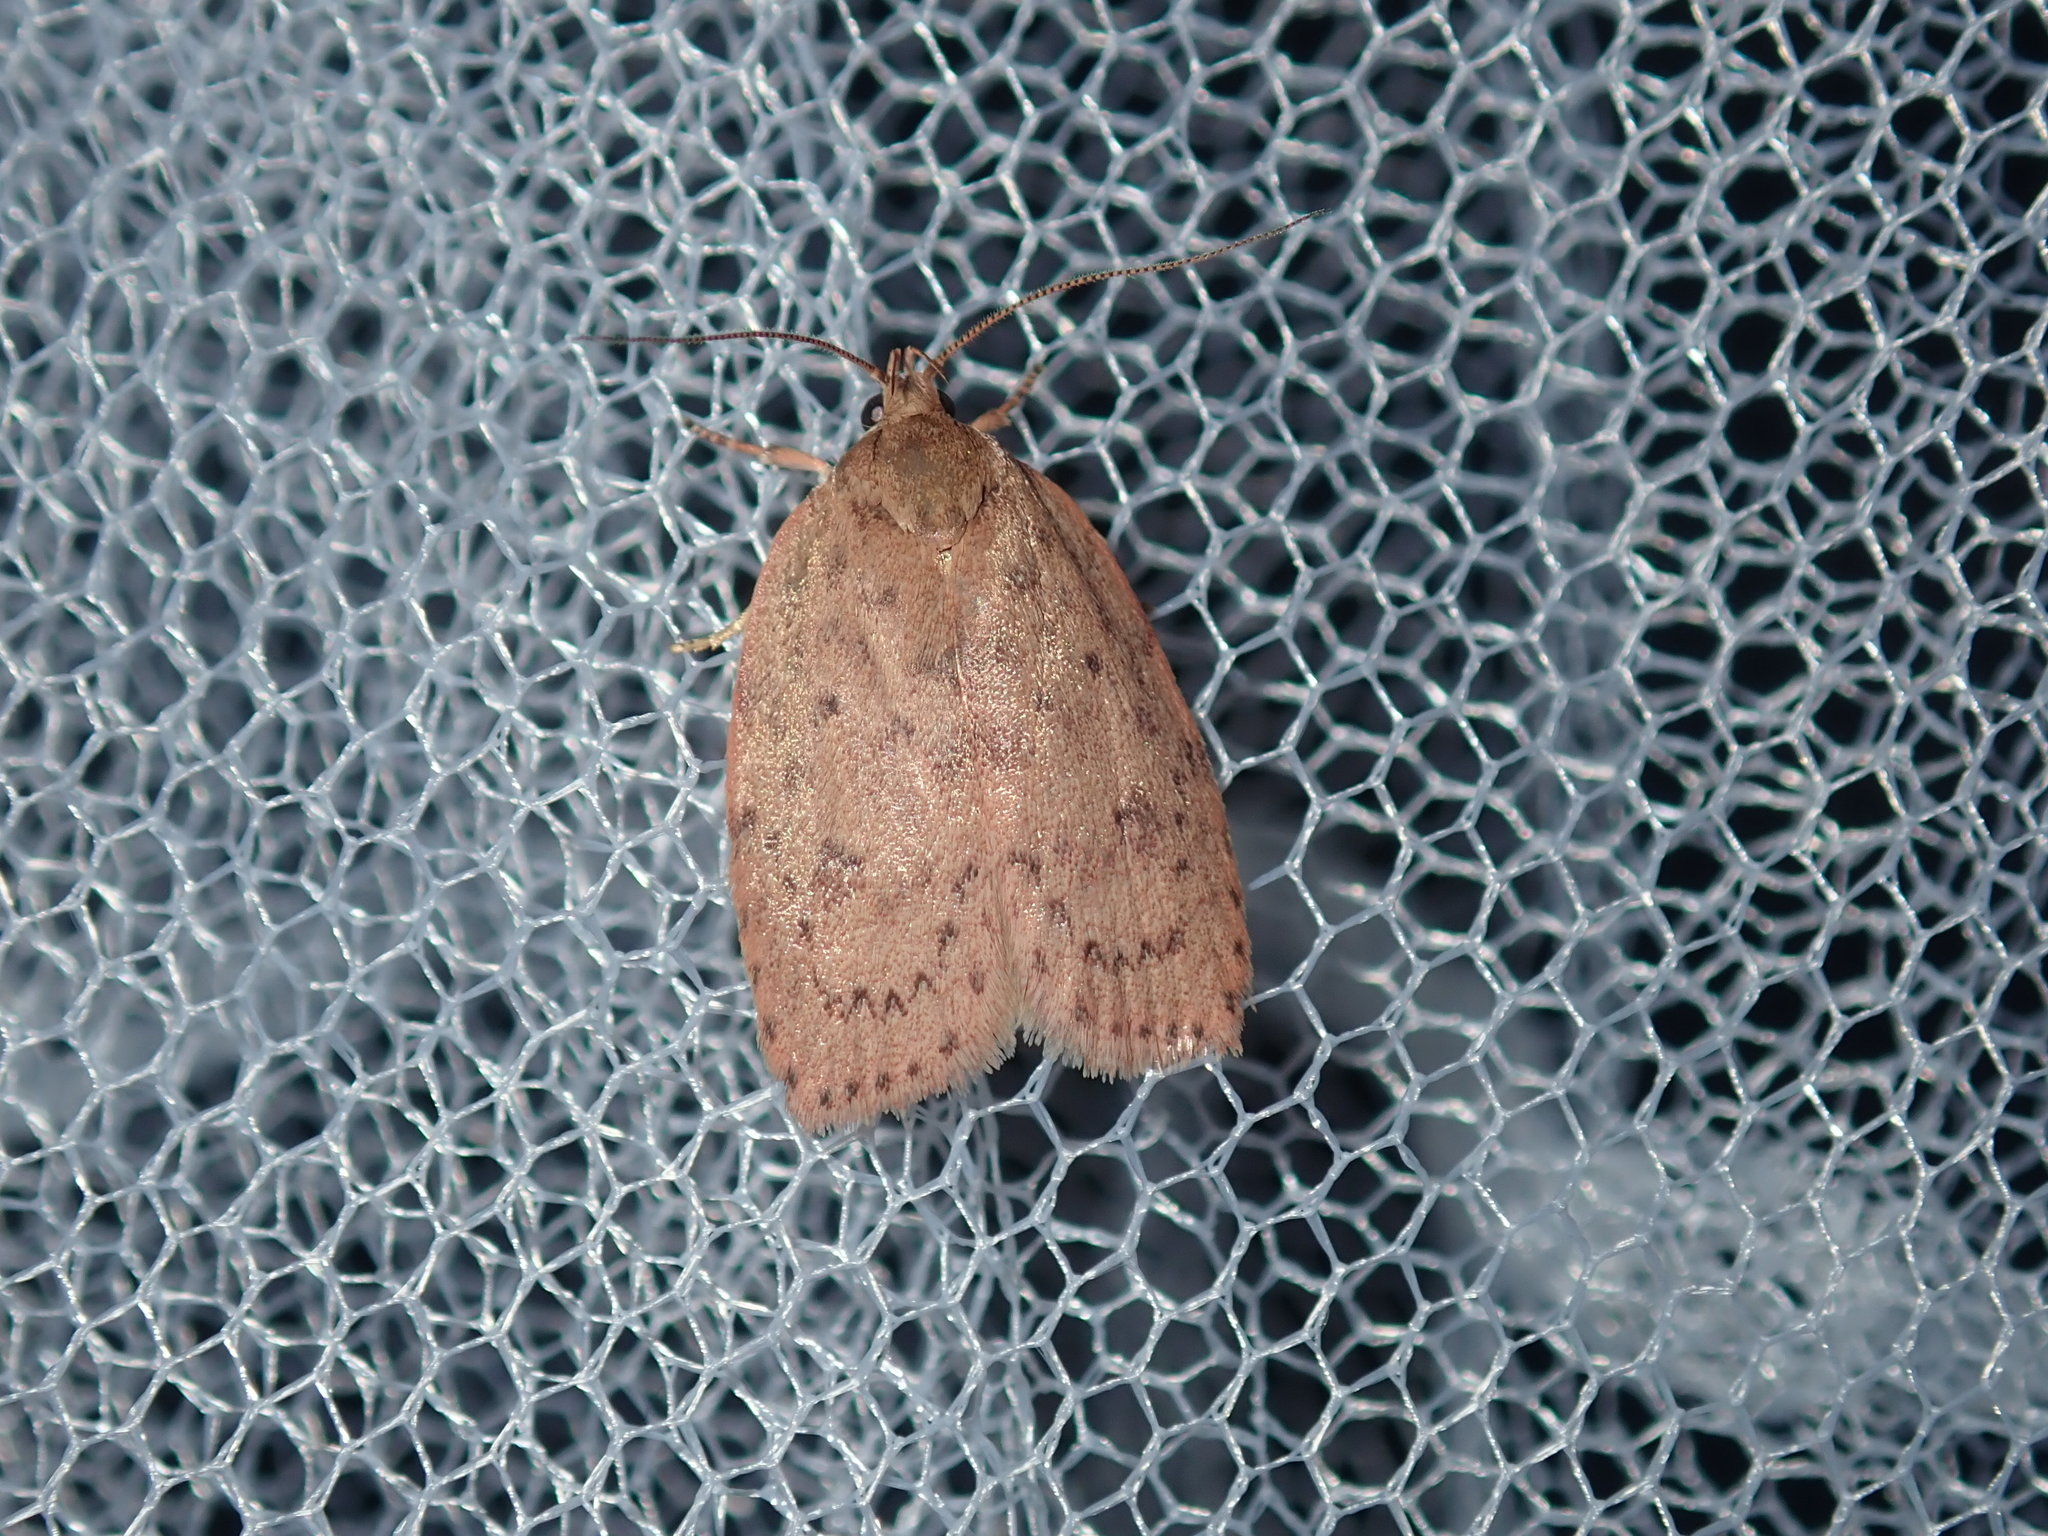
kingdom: Animalia
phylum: Arthropoda
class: Insecta
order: Lepidoptera
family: Oecophoridae
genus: Garrha
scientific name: Garrha repandula
